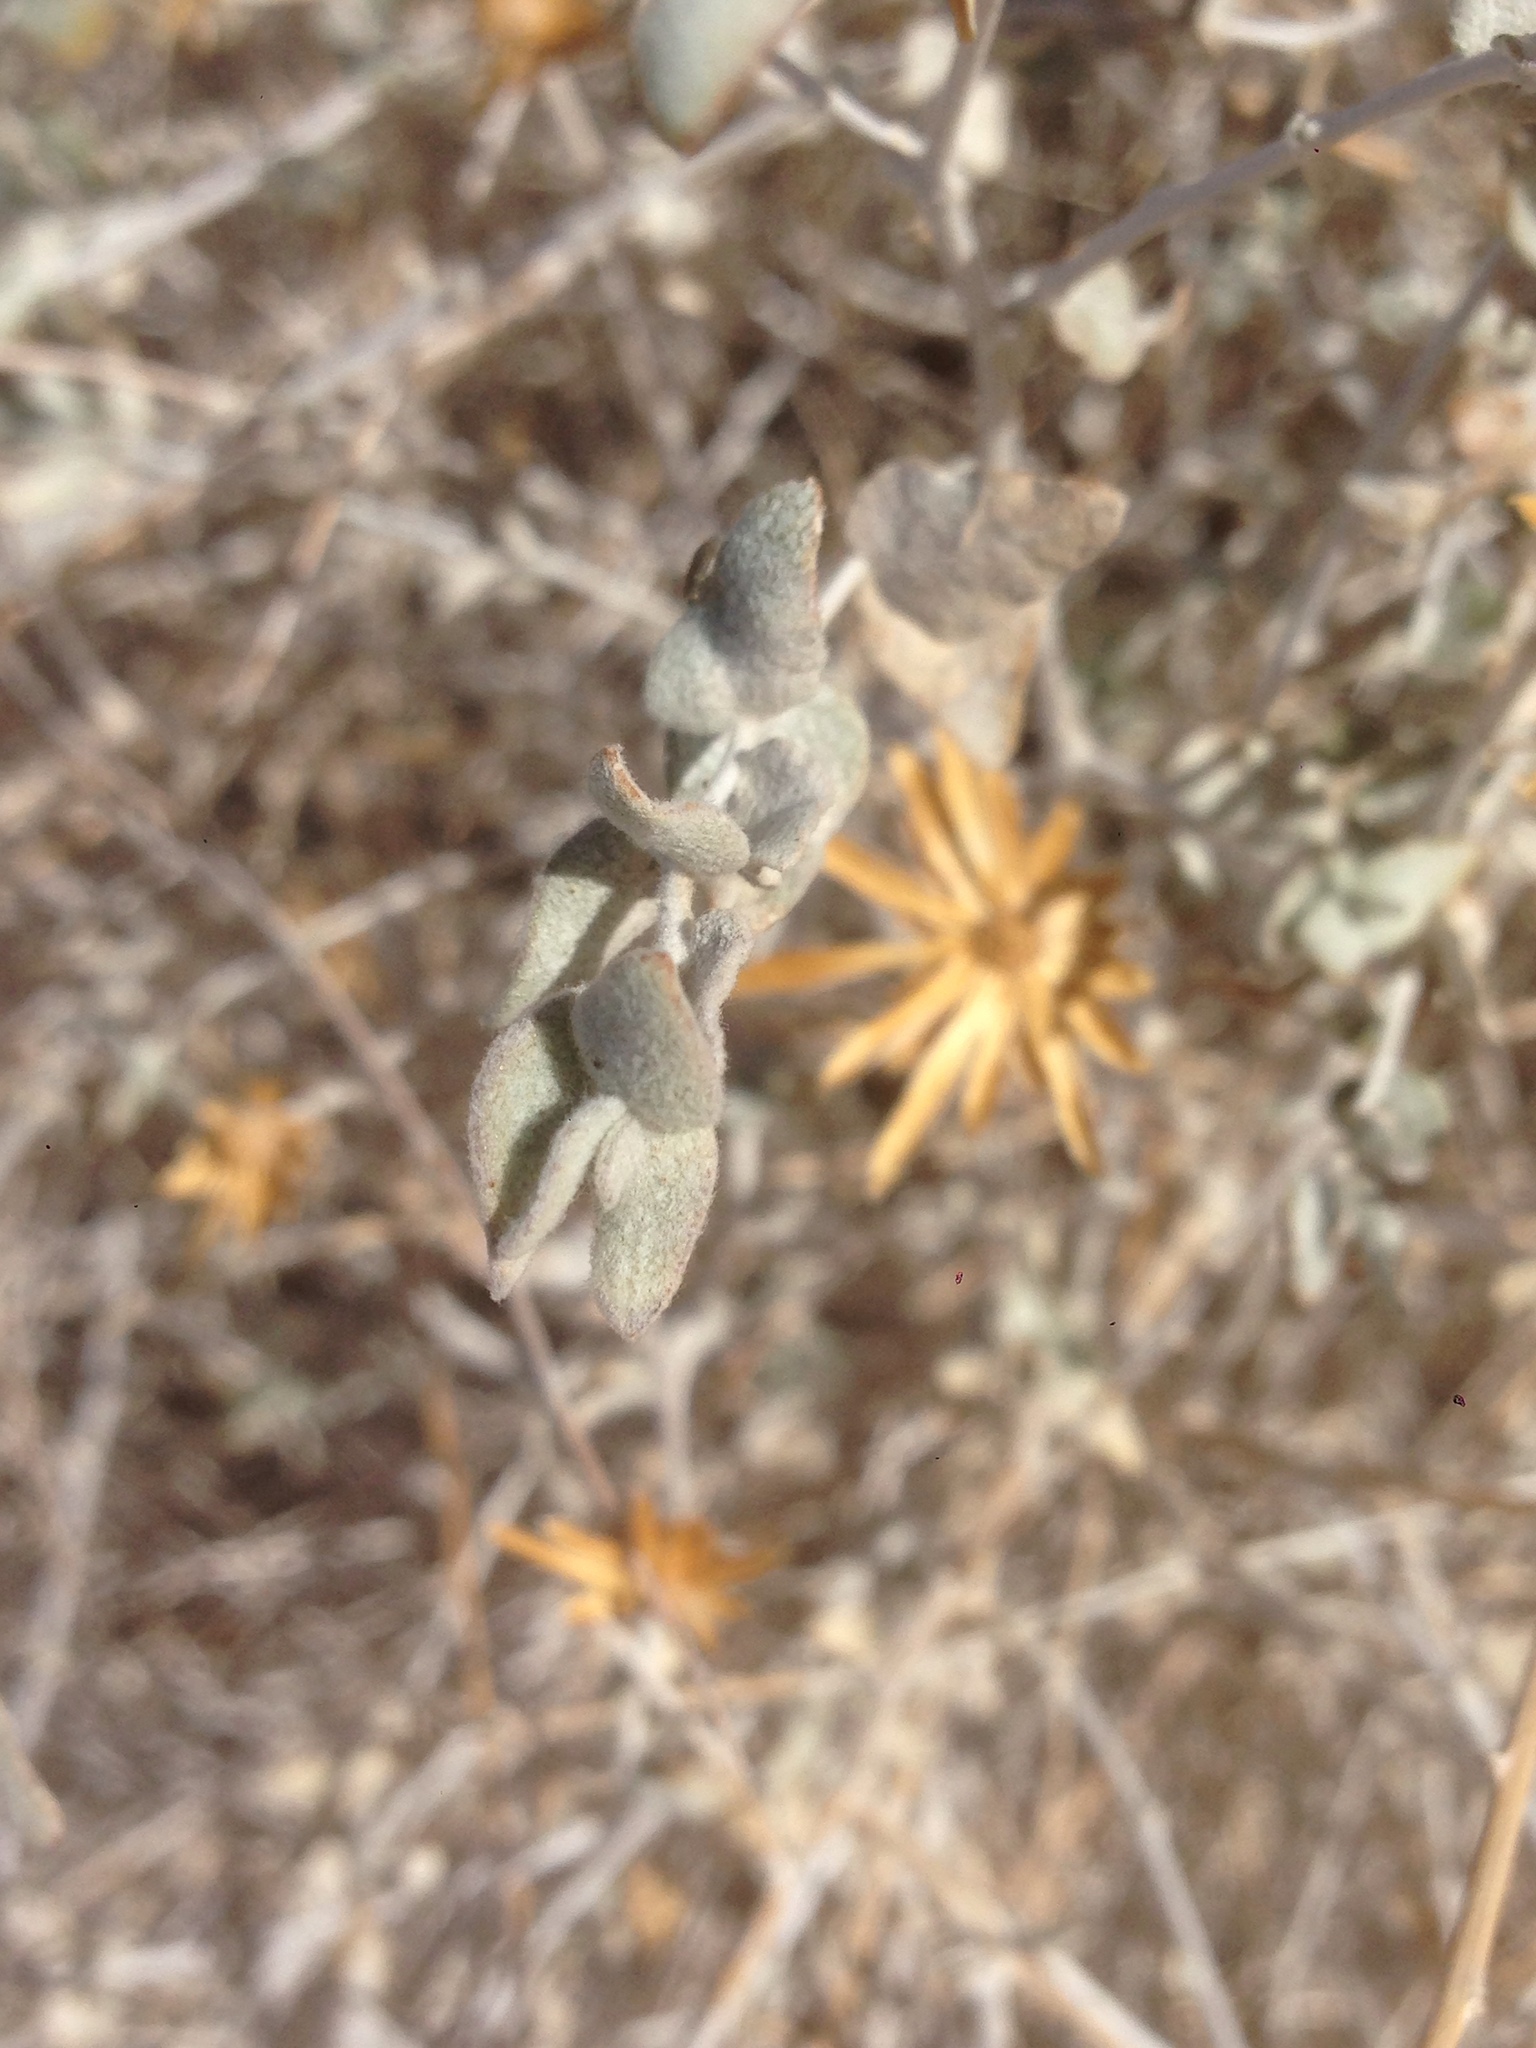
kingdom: Plantae
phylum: Tracheophyta
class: Magnoliopsida
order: Asterales
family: Asteraceae
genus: Brickellia
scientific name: Brickellia incana
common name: Woolly brickelbush
